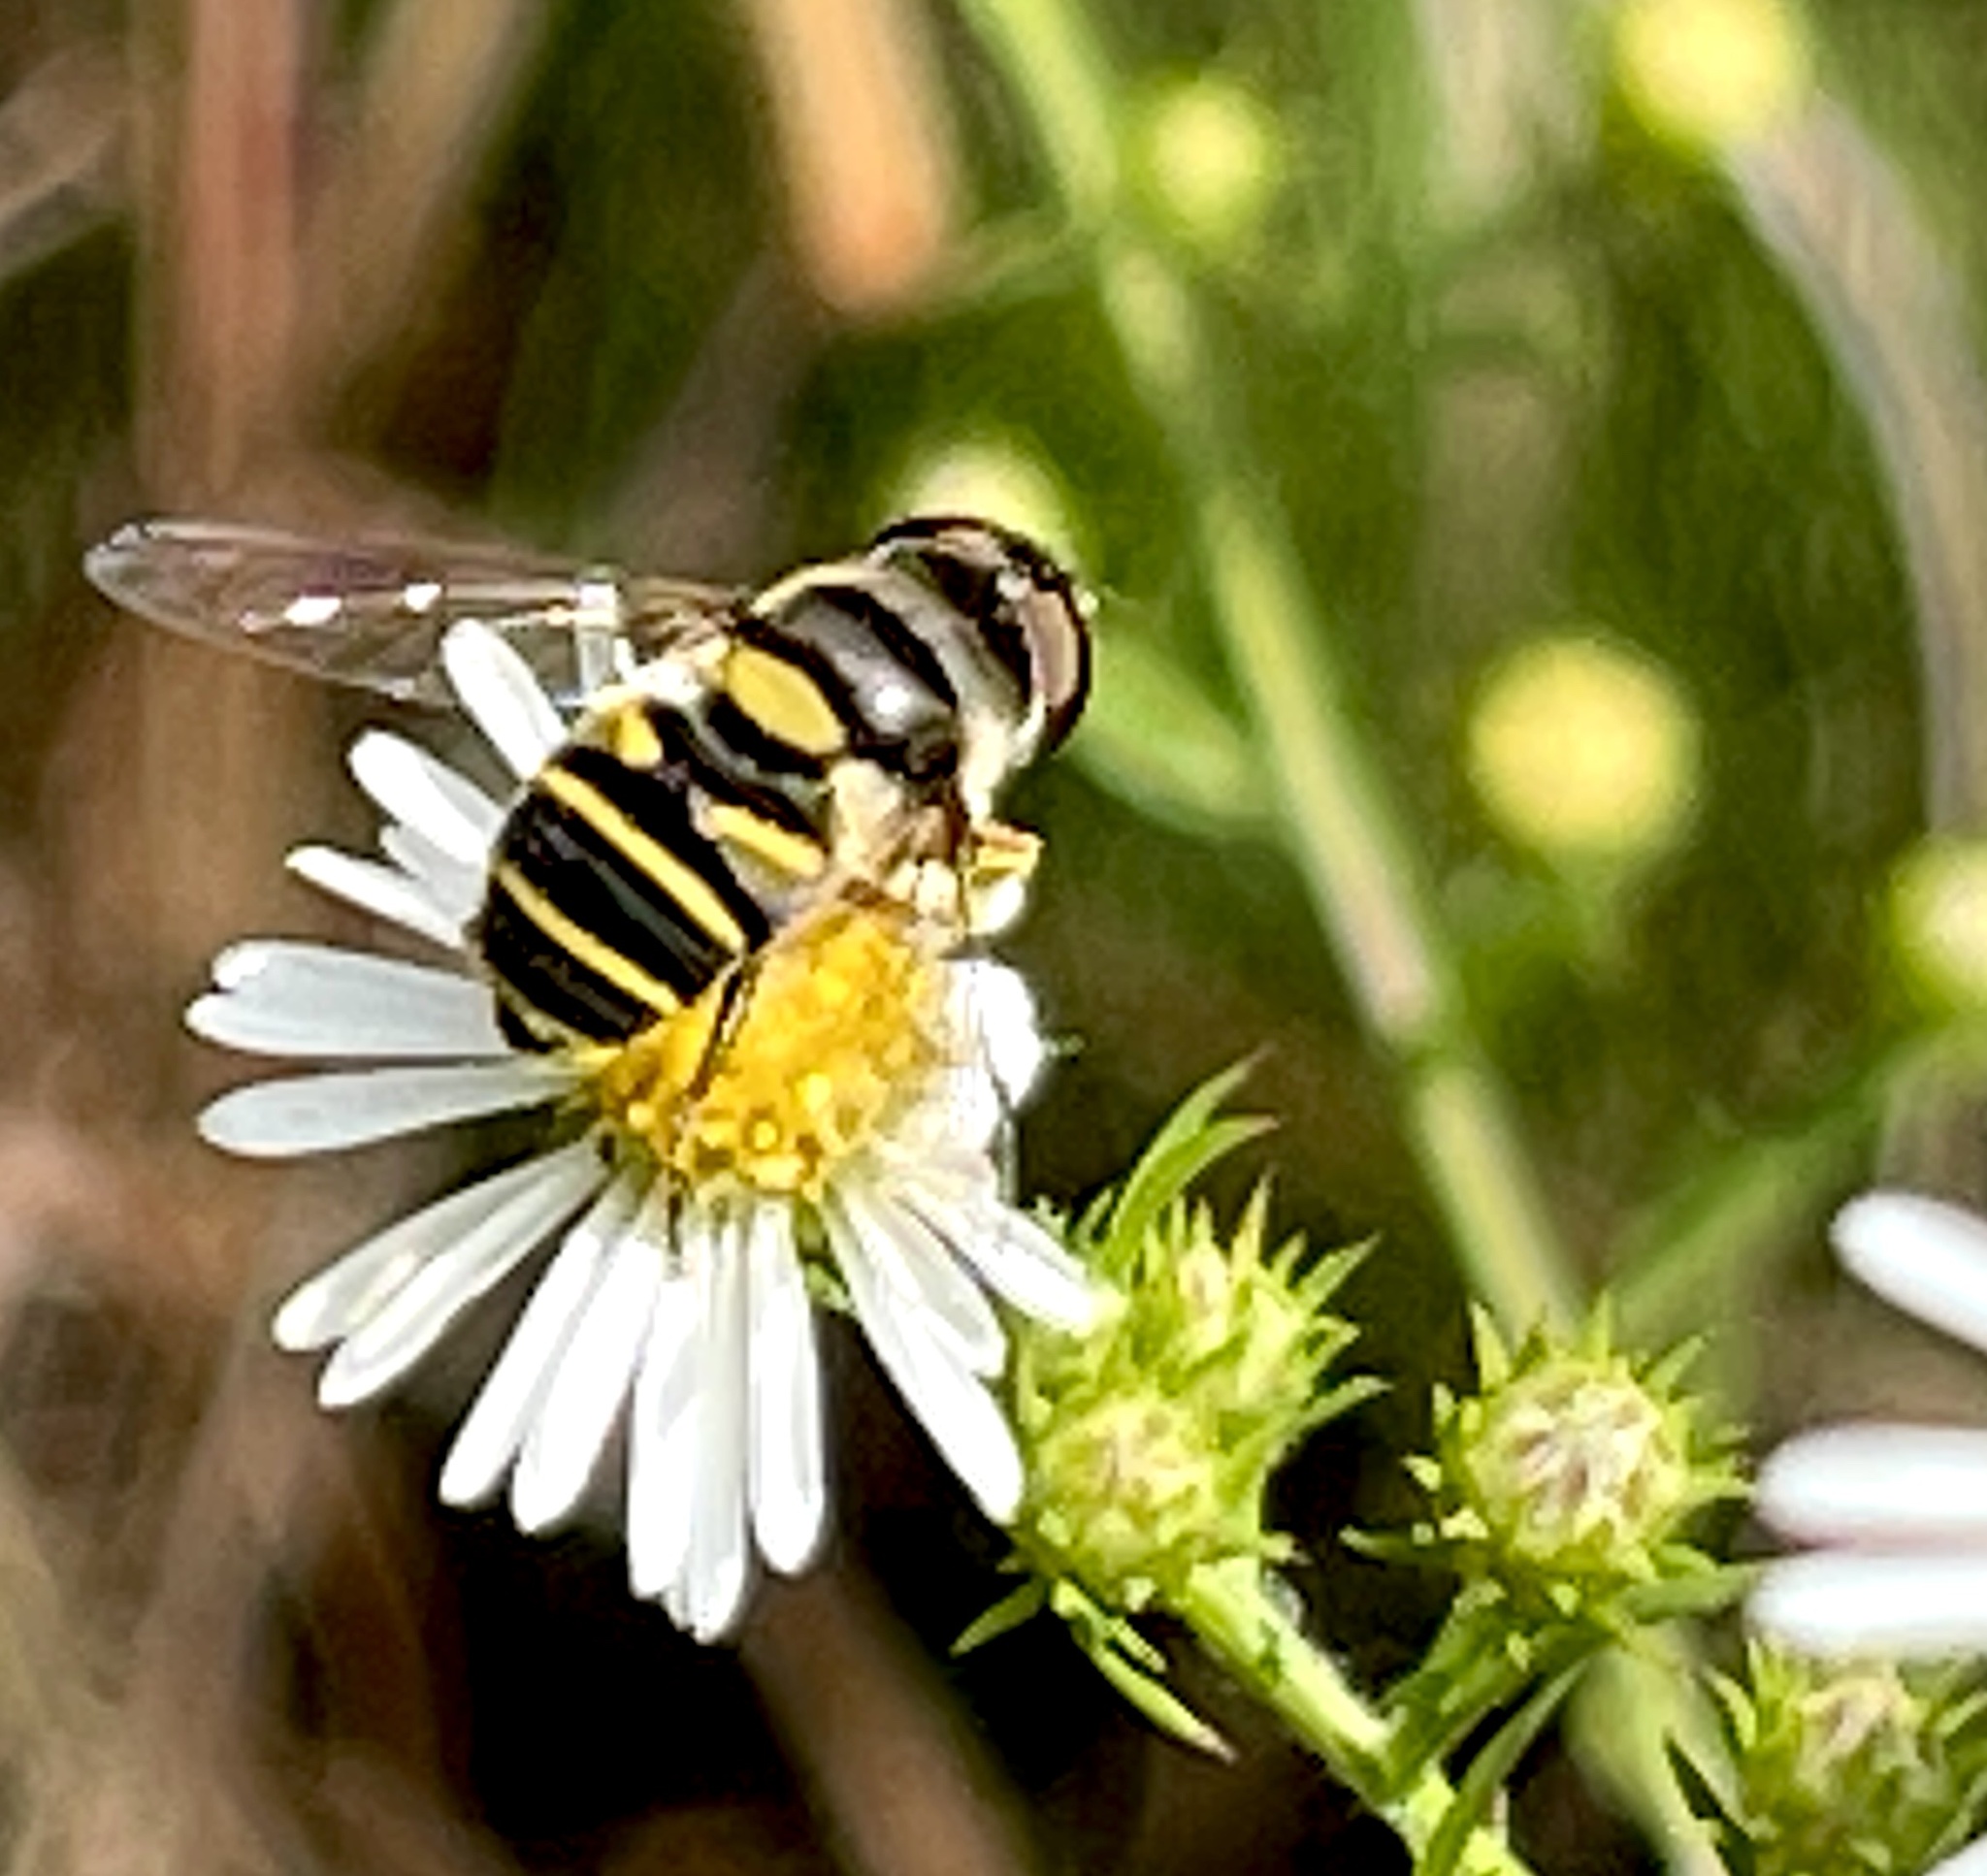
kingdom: Animalia
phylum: Arthropoda
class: Insecta
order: Diptera
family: Syrphidae
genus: Eristalis
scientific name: Eristalis transversa
